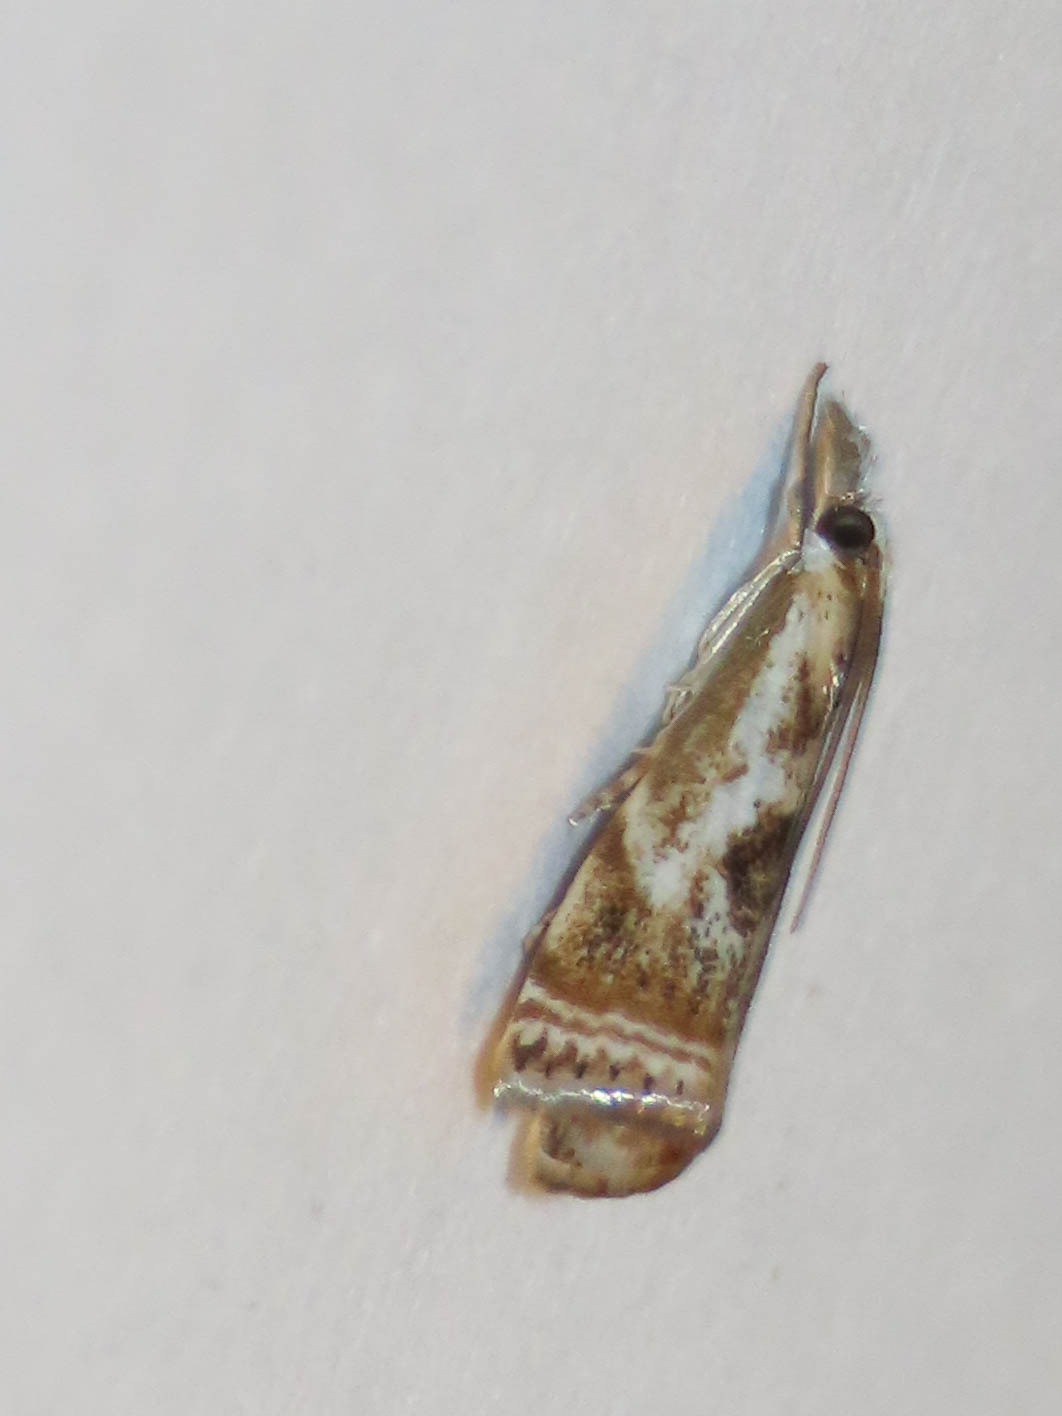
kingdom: Animalia
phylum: Arthropoda
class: Insecta
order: Lepidoptera
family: Crambidae
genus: Microcrambus
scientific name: Microcrambus elegans
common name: Elegant grass-veneer
